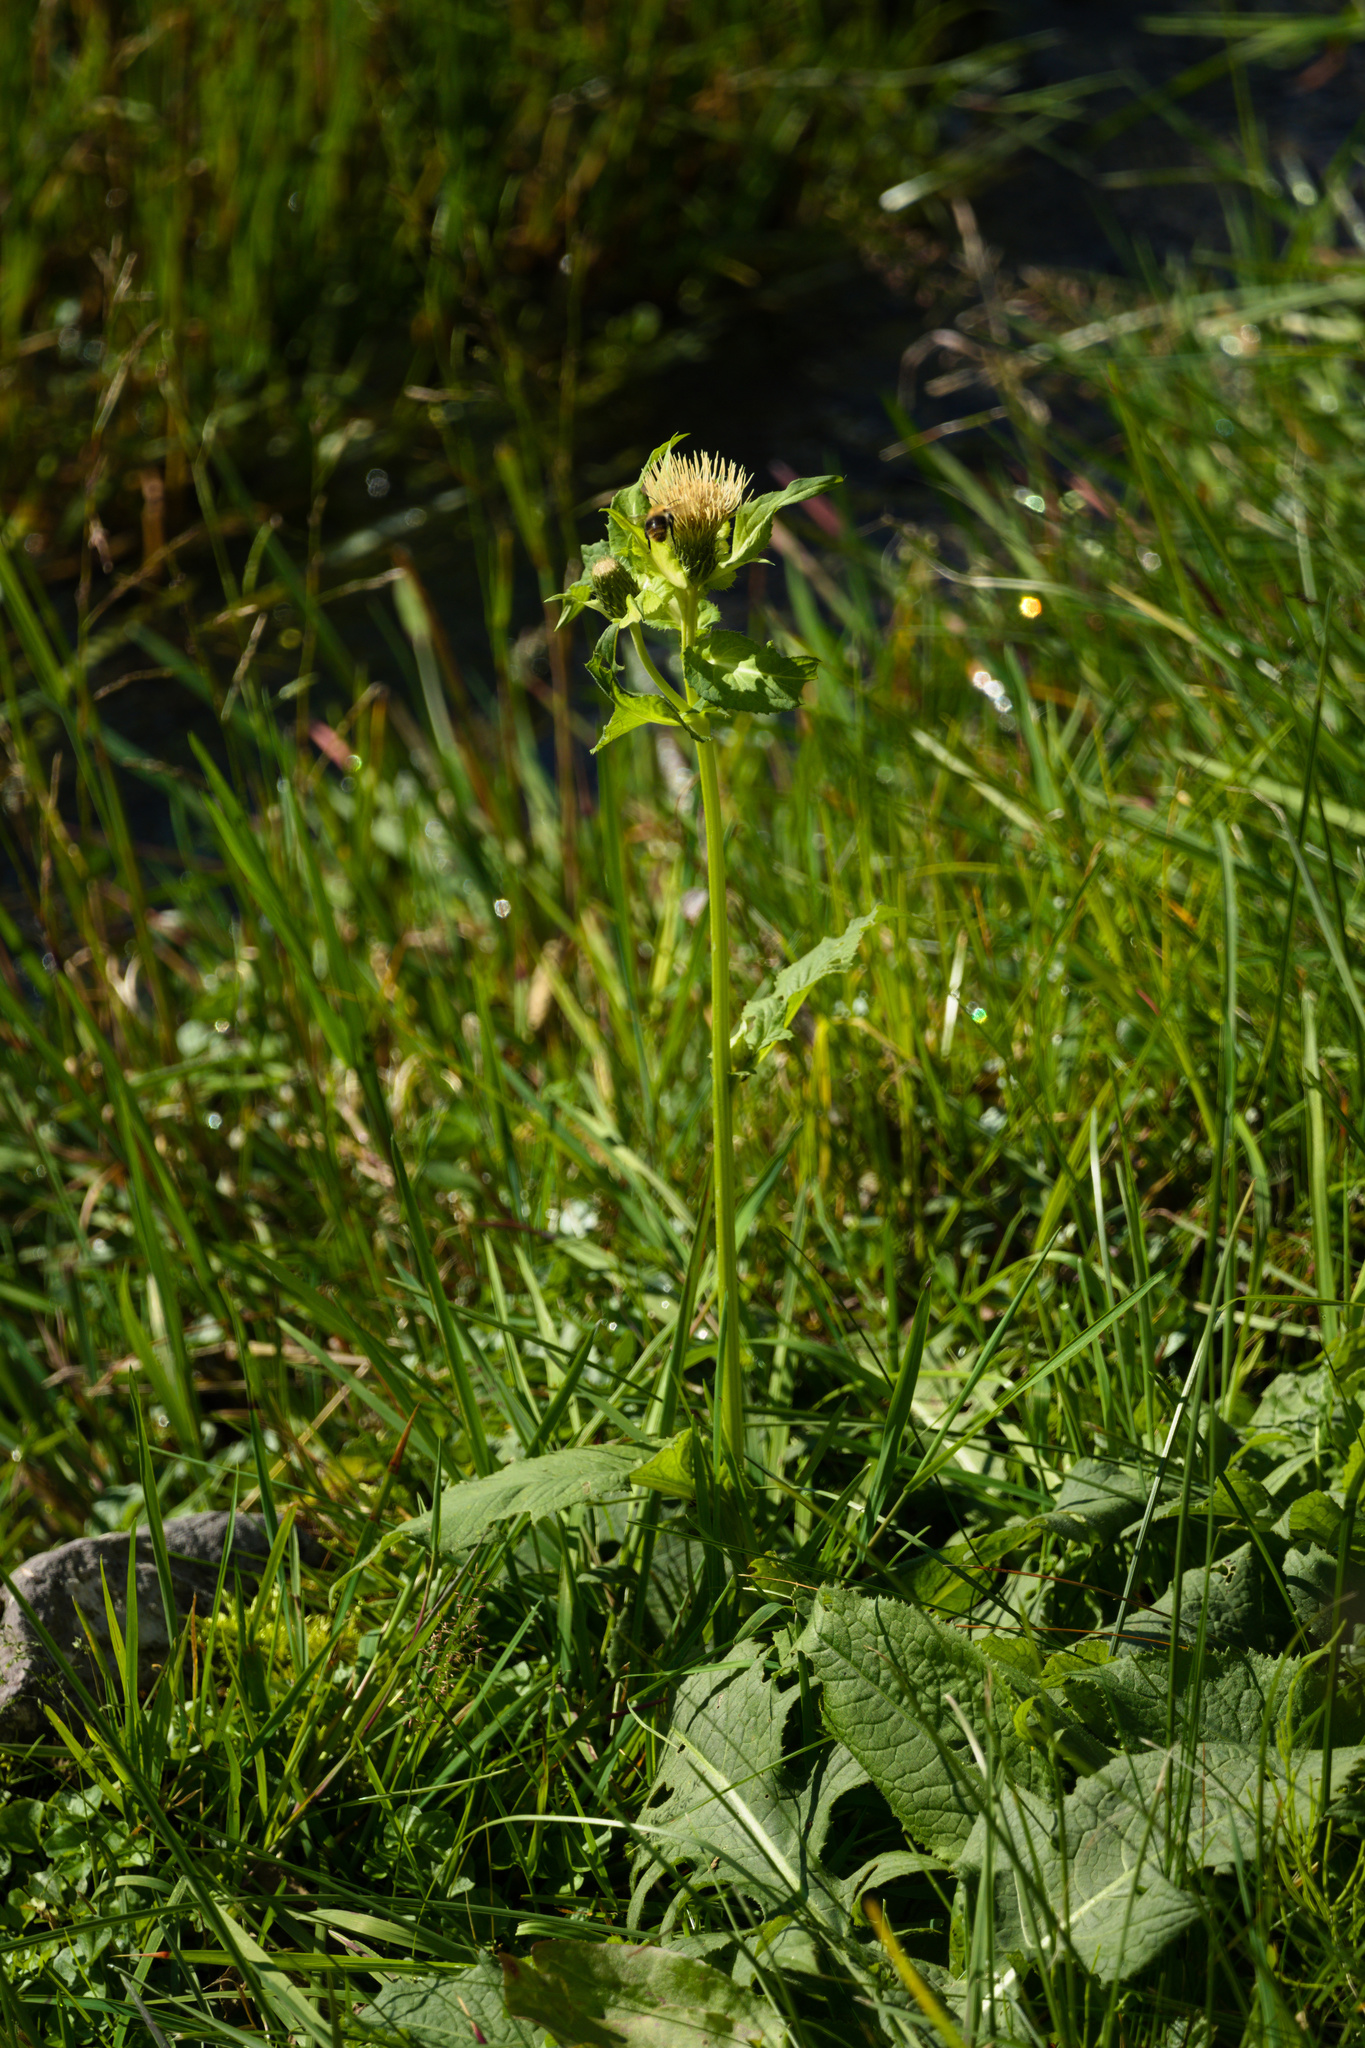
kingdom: Plantae
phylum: Tracheophyta
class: Magnoliopsida
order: Asterales
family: Asteraceae
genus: Cirsium
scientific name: Cirsium oleraceum
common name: Cabbage thistle
